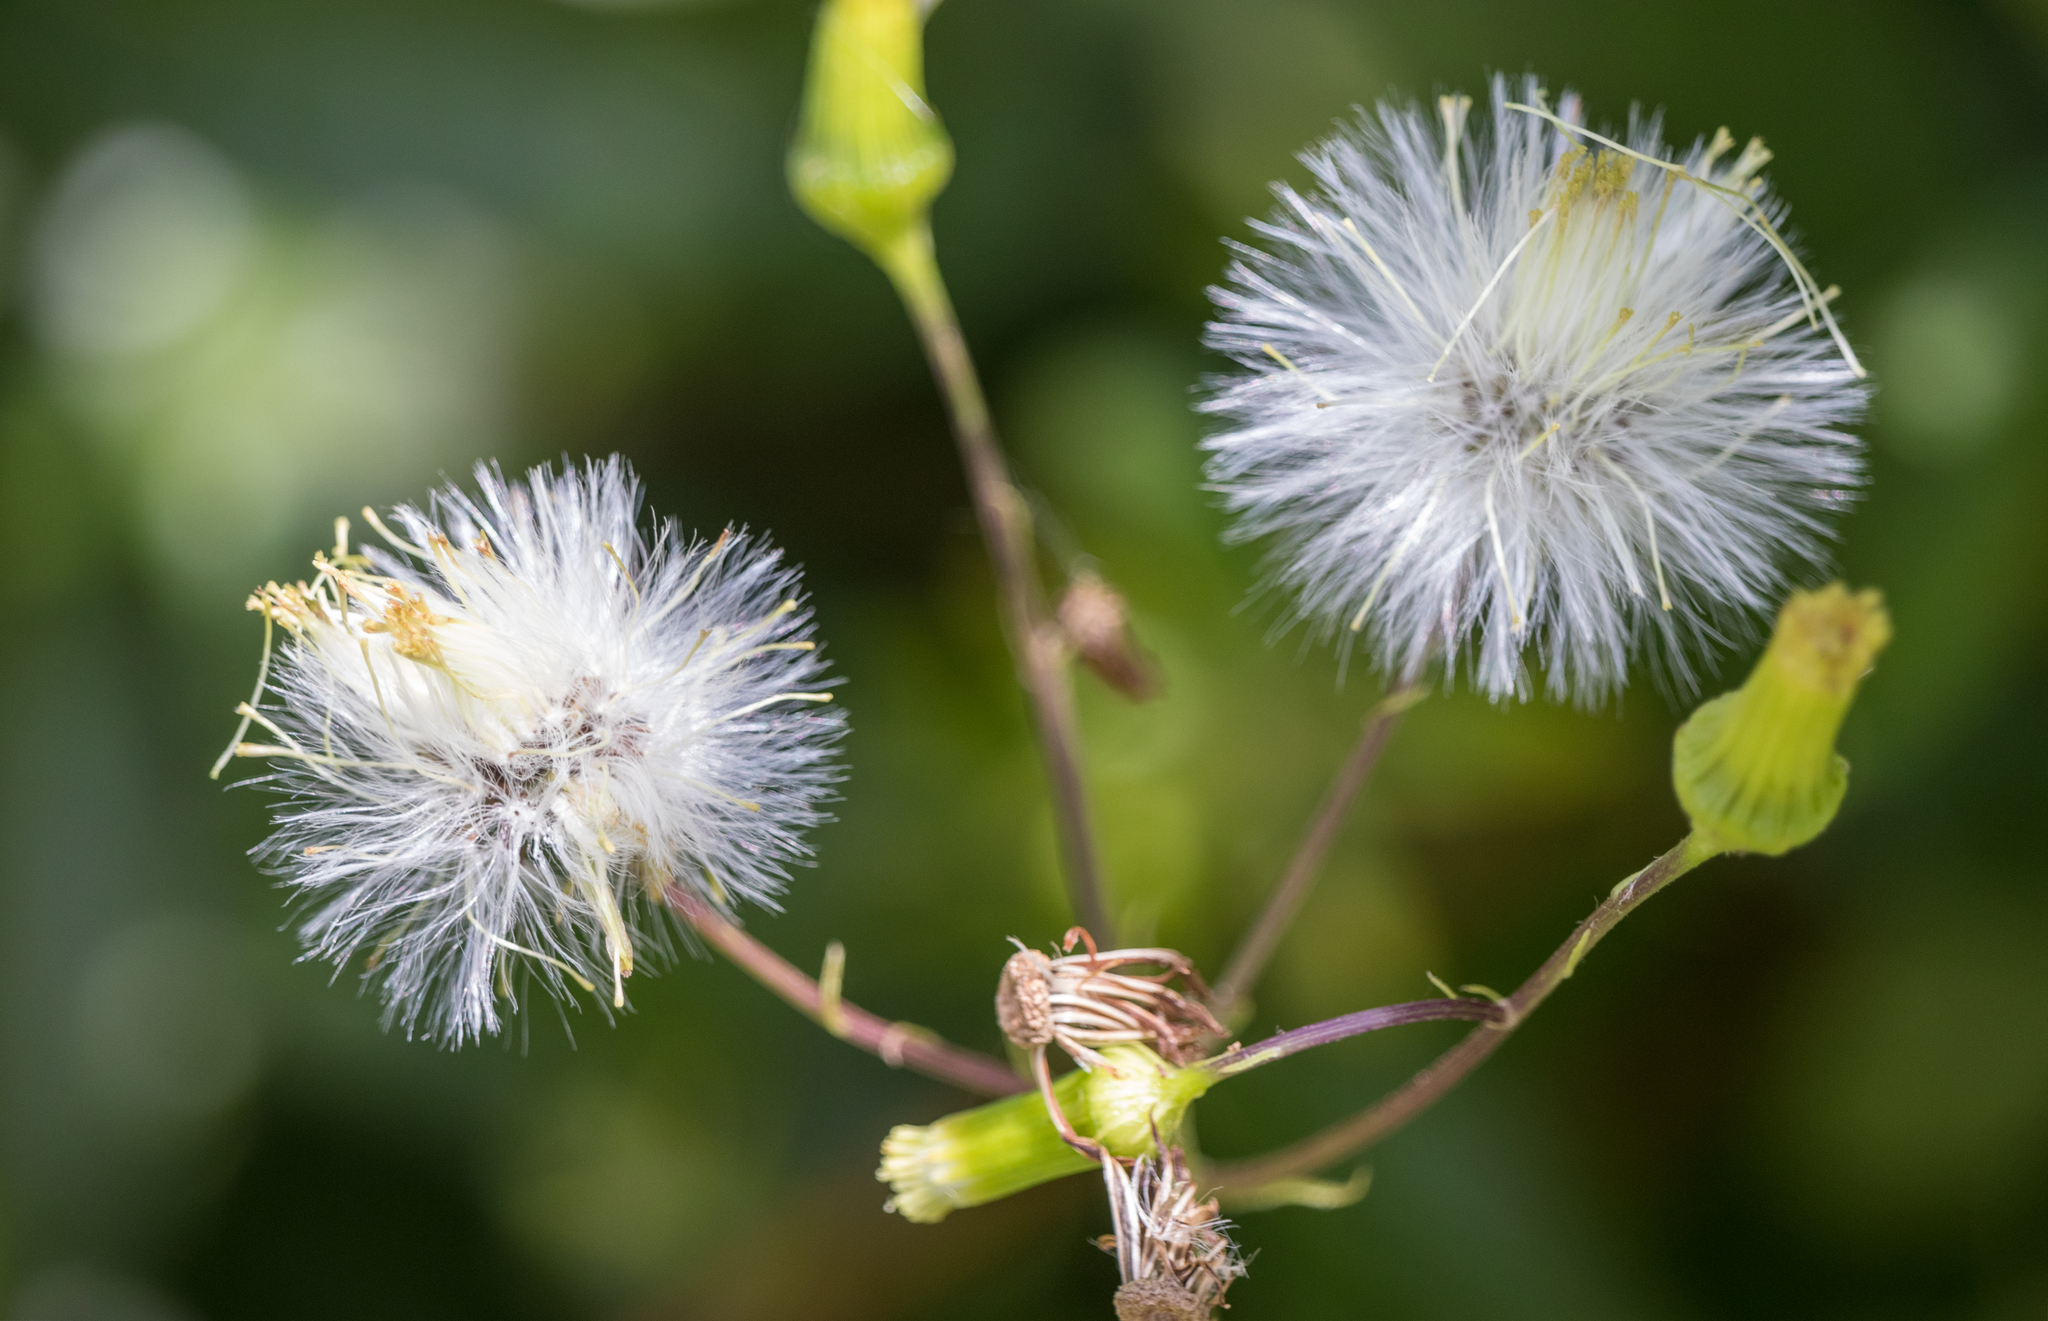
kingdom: Plantae
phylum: Tracheophyta
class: Magnoliopsida
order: Asterales
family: Asteraceae
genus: Erechtites
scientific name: Erechtites hieraciifolius
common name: American burnweed
